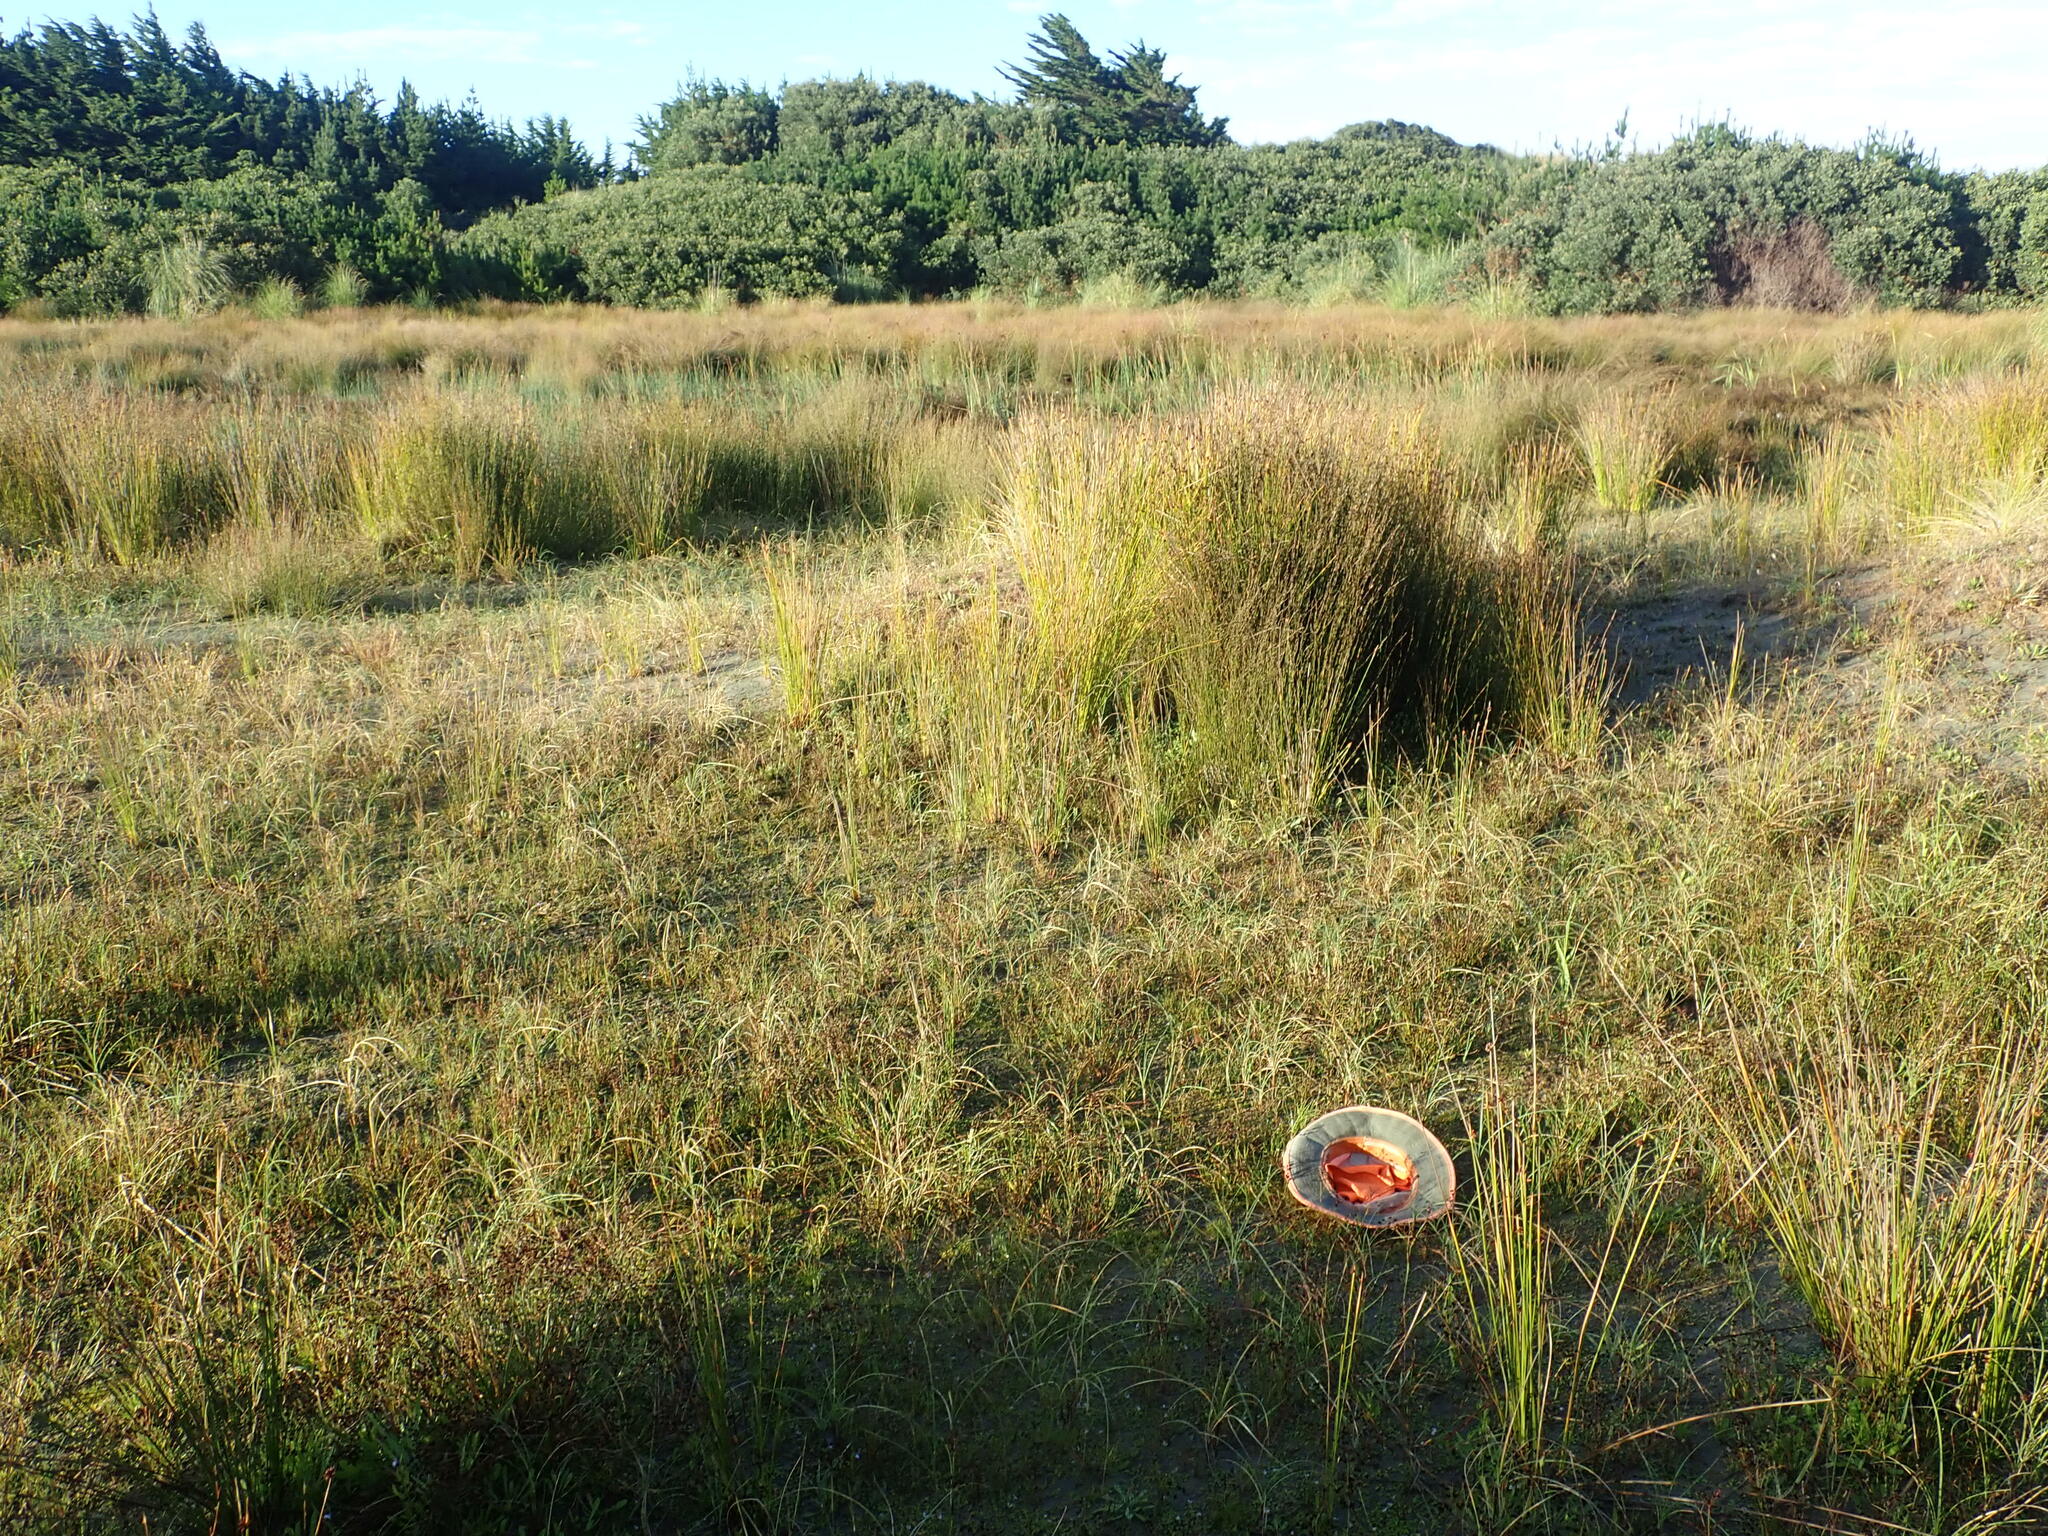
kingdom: Plantae
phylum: Tracheophyta
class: Magnoliopsida
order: Apiales
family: Apiaceae
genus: Lilaeopsis
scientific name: Lilaeopsis novae-zelandiae
